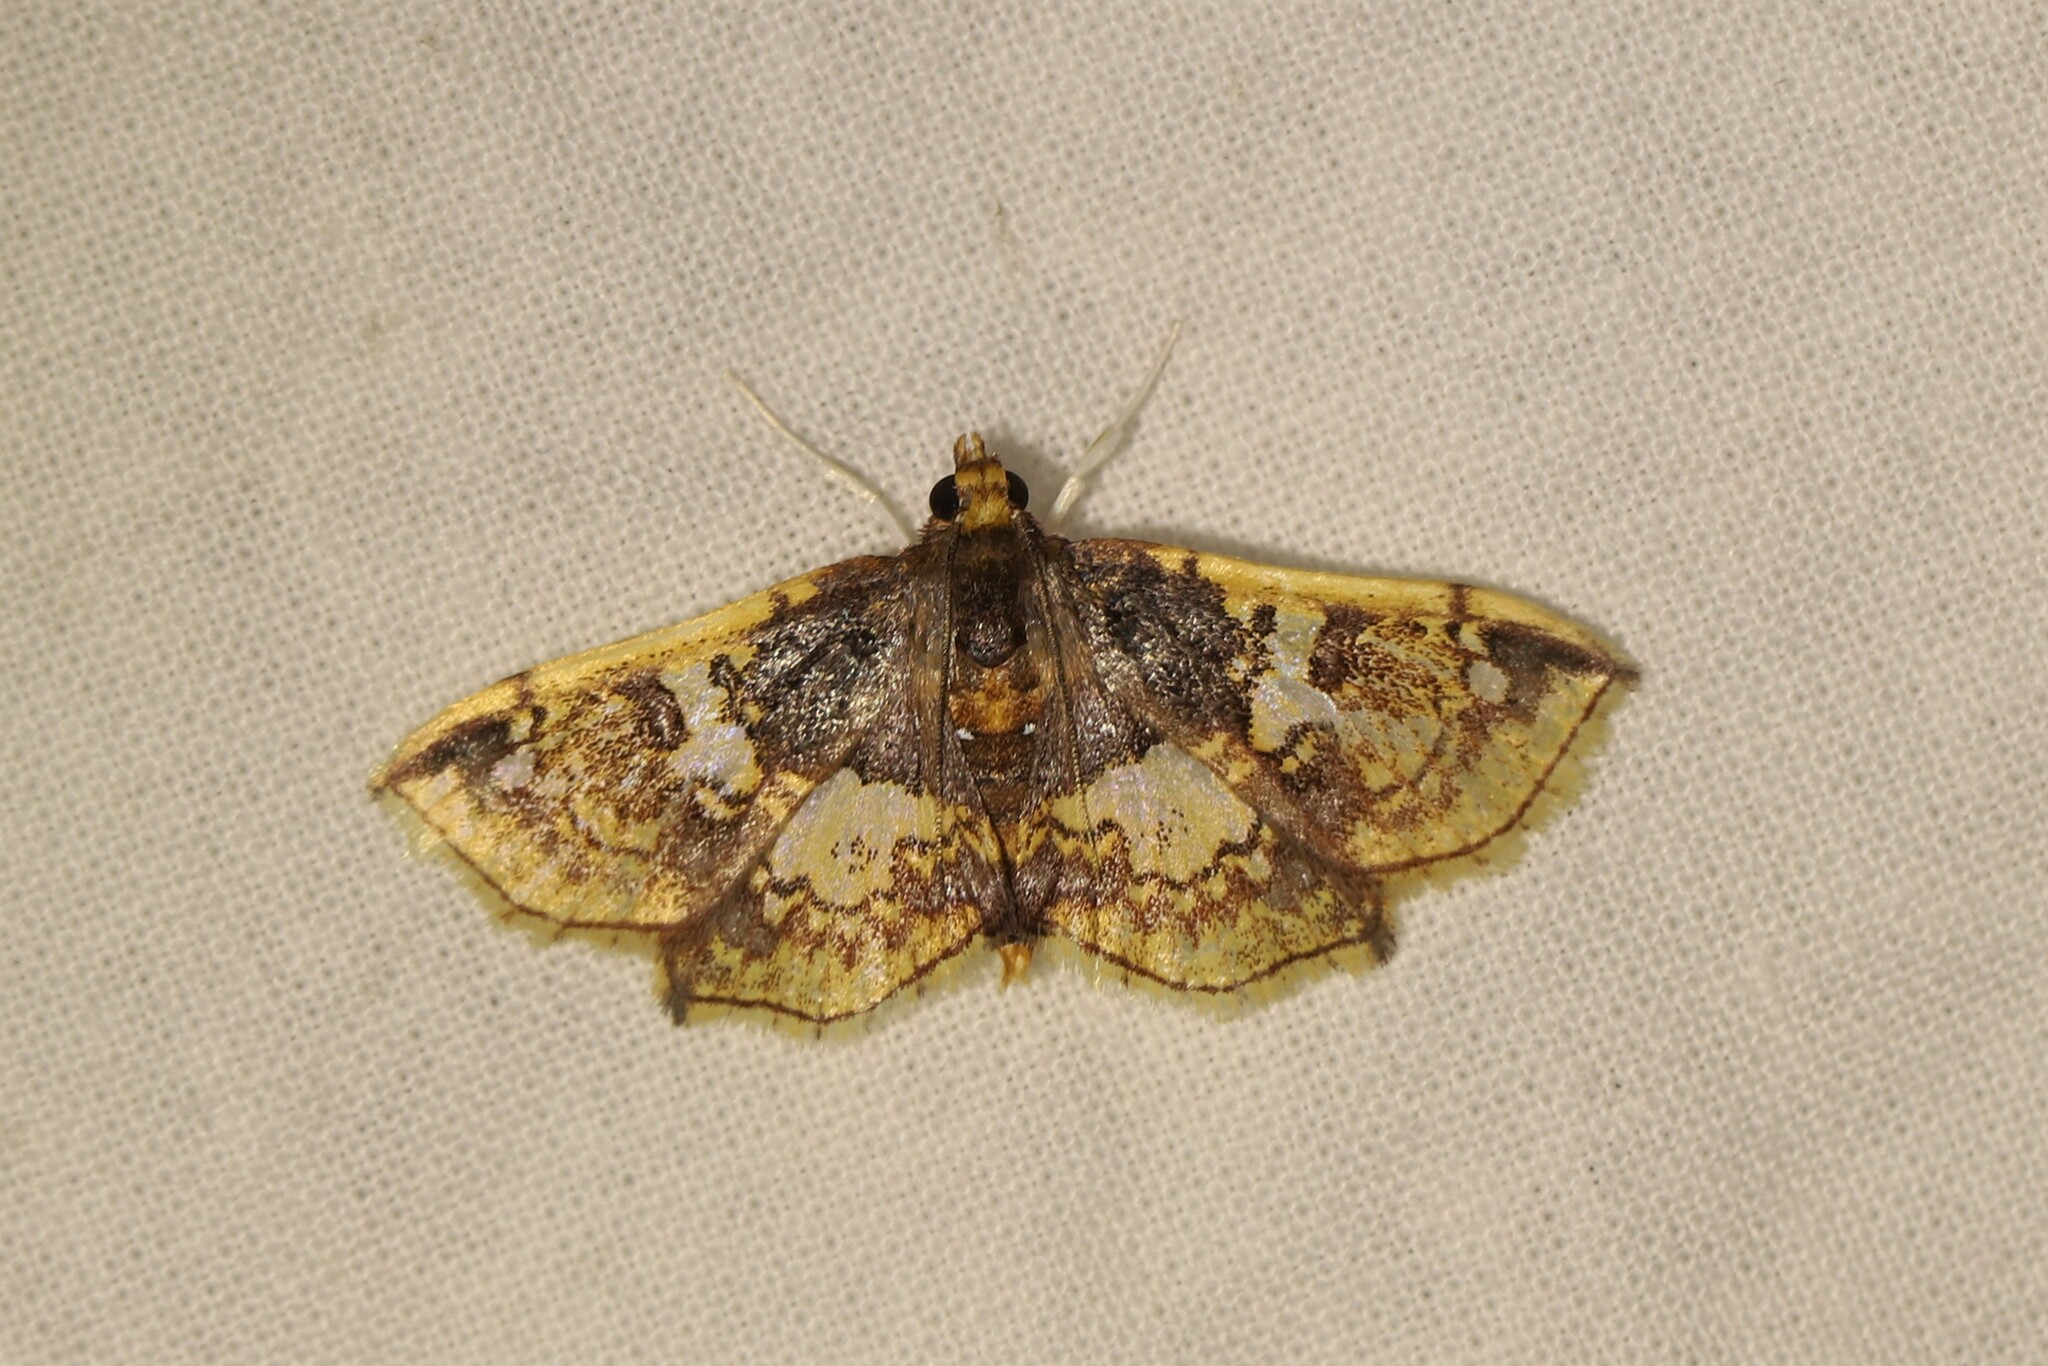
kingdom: Animalia
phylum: Arthropoda
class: Insecta
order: Lepidoptera
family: Crambidae
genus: Megastes
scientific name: Megastes erythrostolalis
